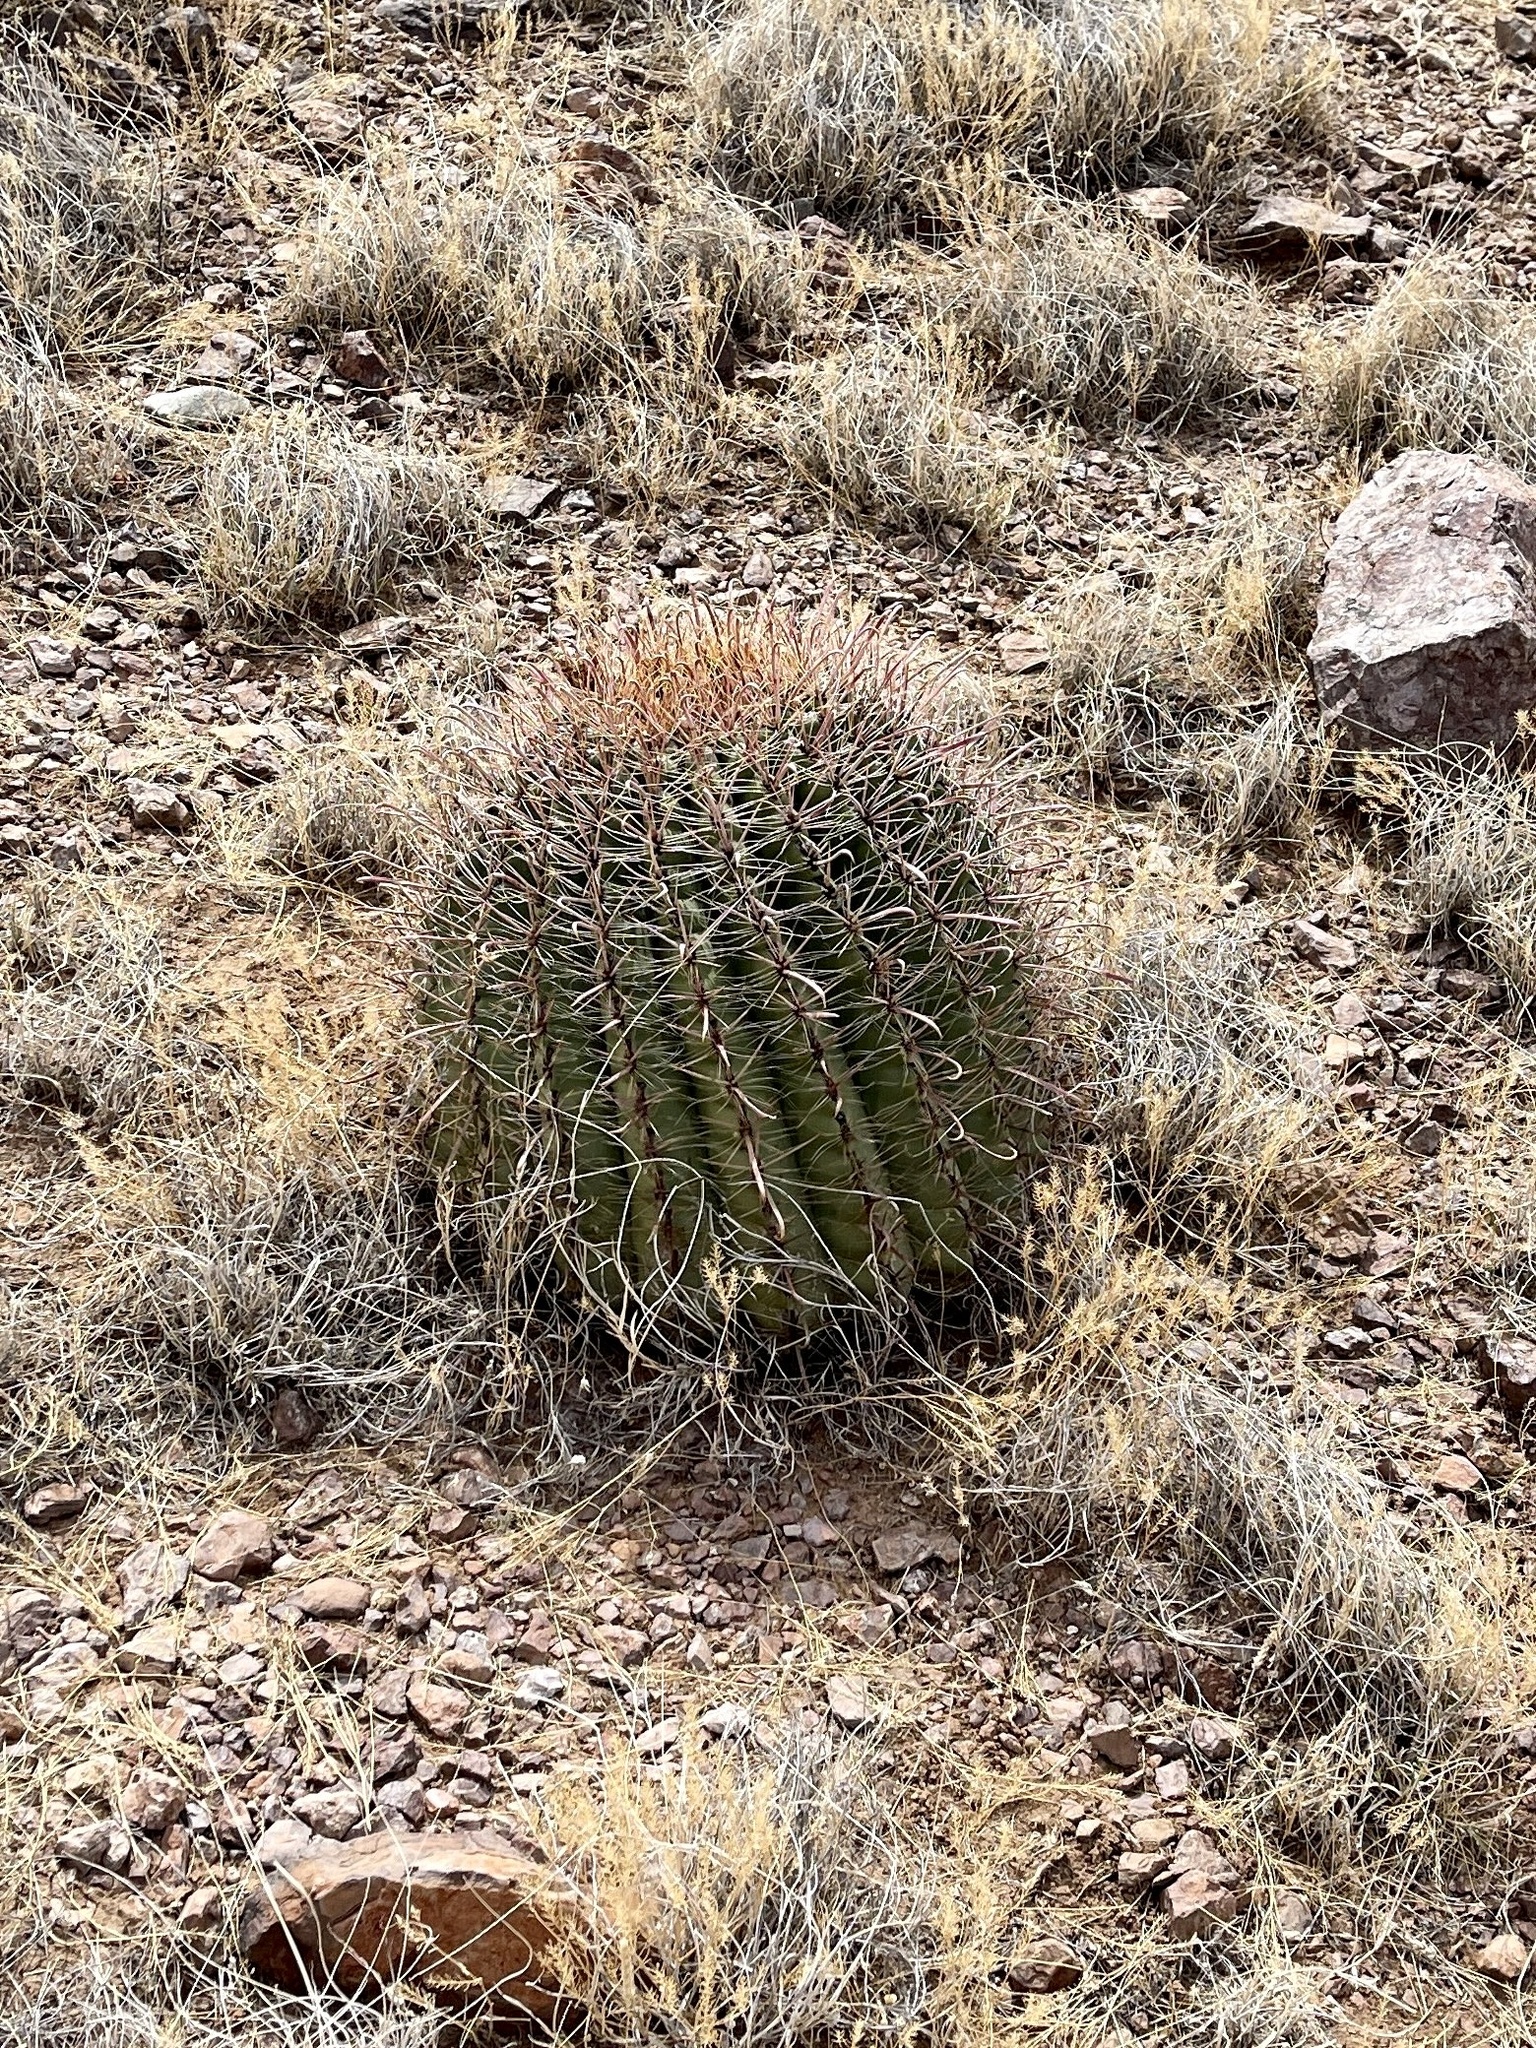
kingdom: Plantae
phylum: Tracheophyta
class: Magnoliopsida
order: Caryophyllales
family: Cactaceae
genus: Ferocactus
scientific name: Ferocactus wislizeni
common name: Candy barrel cactus
